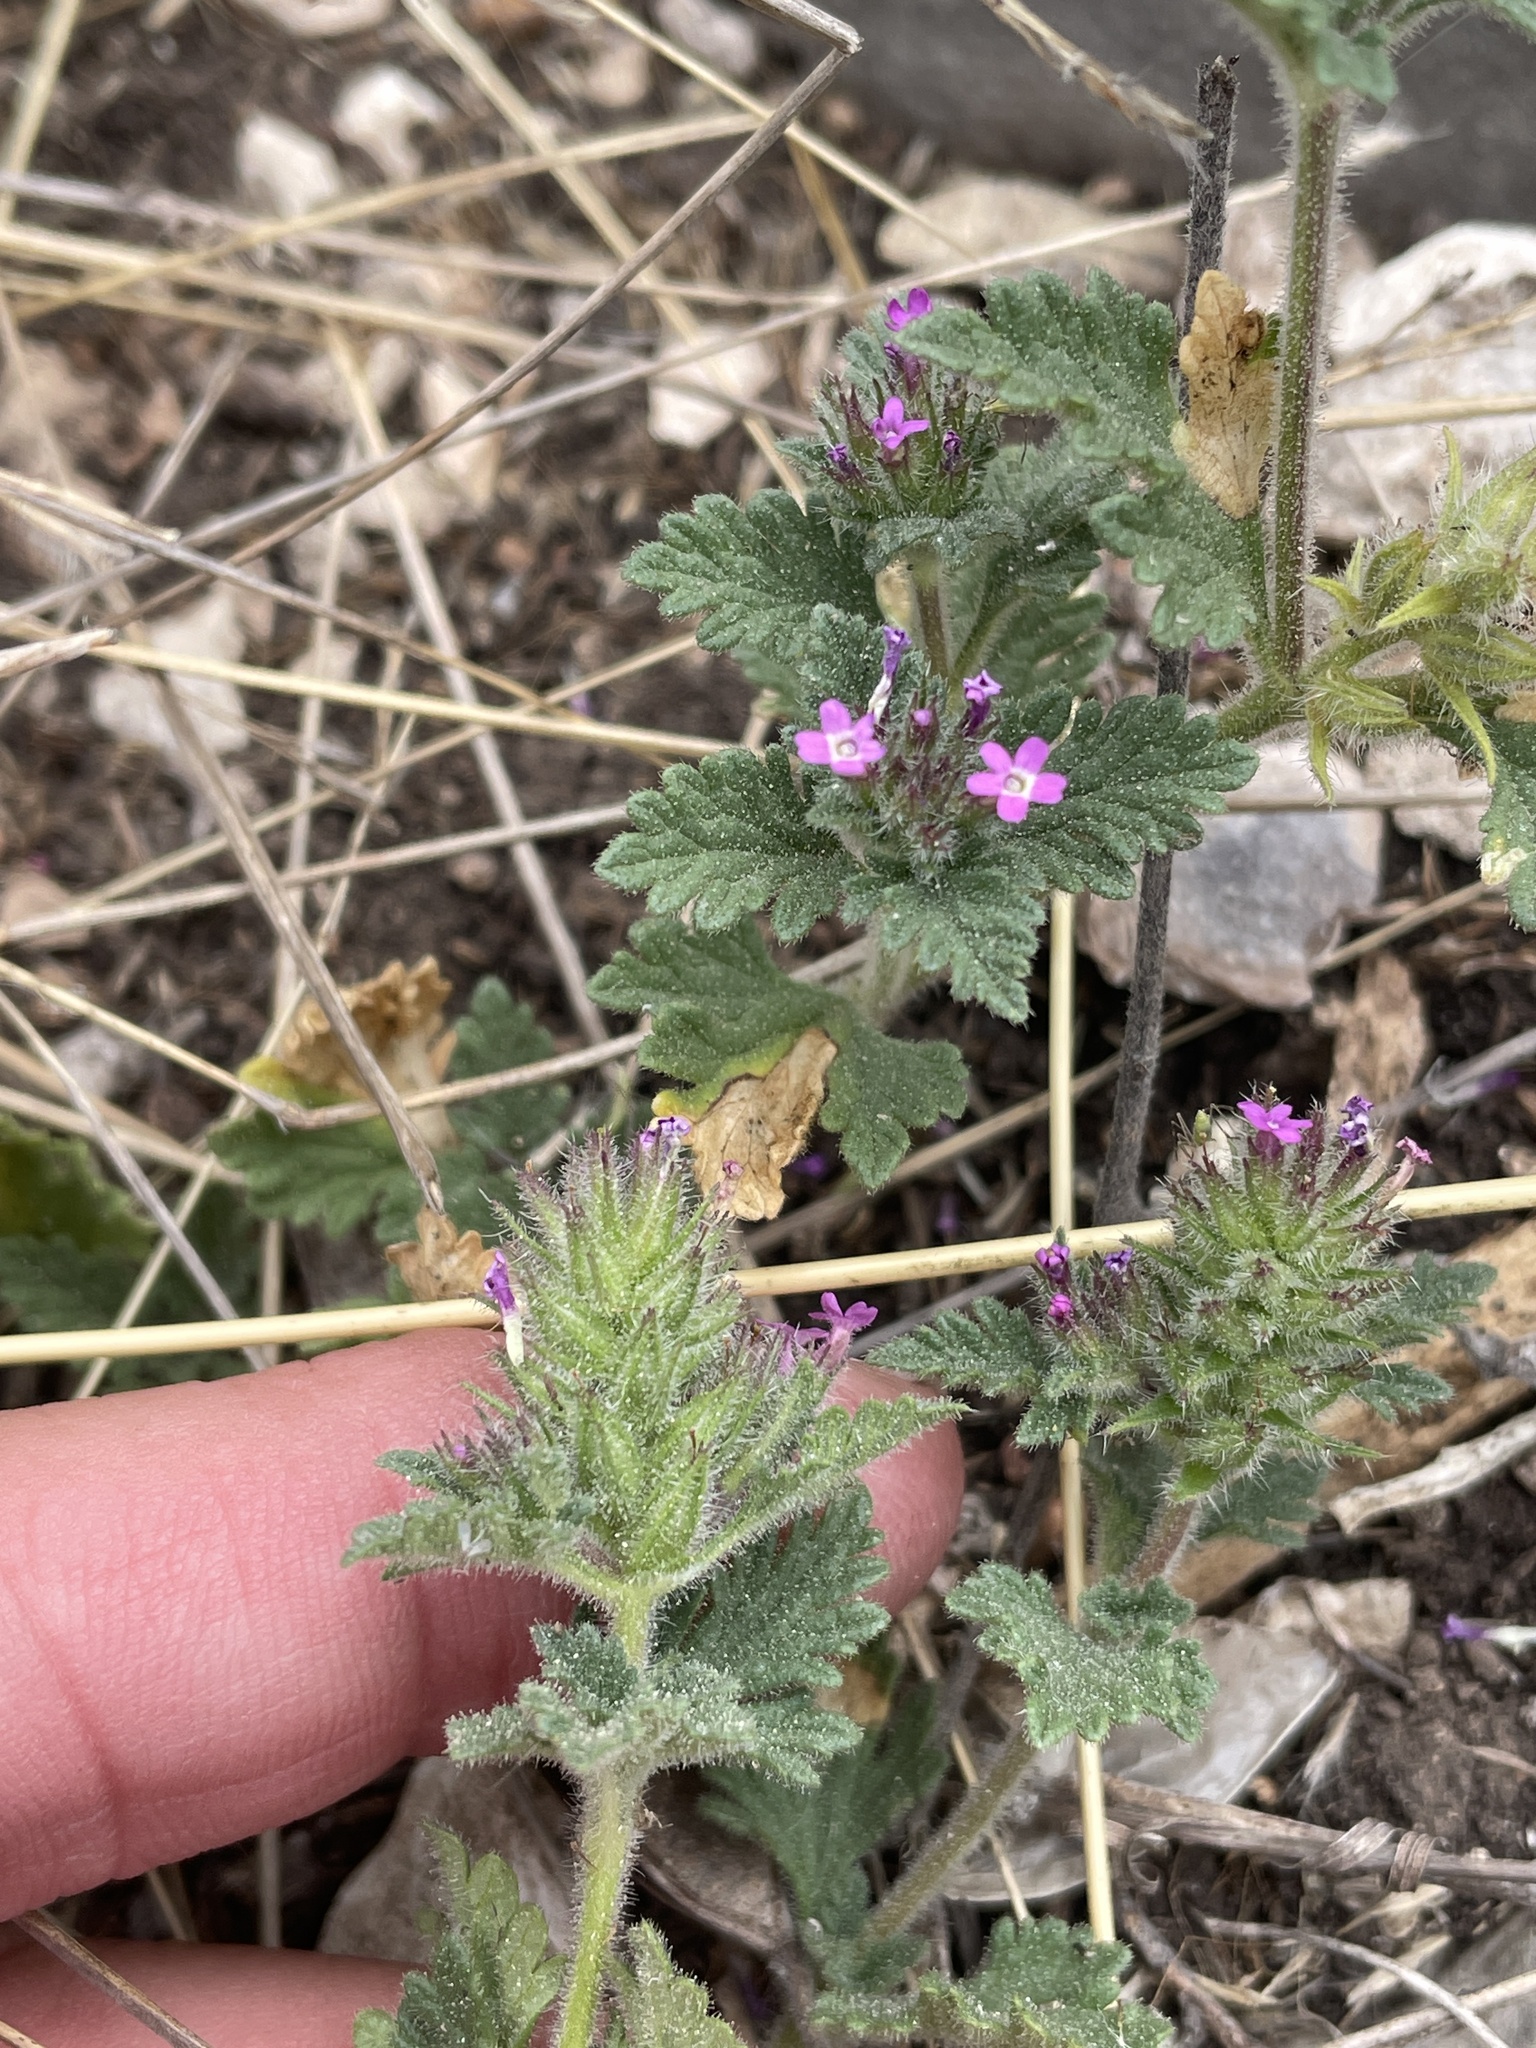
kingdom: Plantae
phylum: Tracheophyta
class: Magnoliopsida
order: Lamiales
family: Verbenaceae
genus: Verbena
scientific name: Verbena pumila
